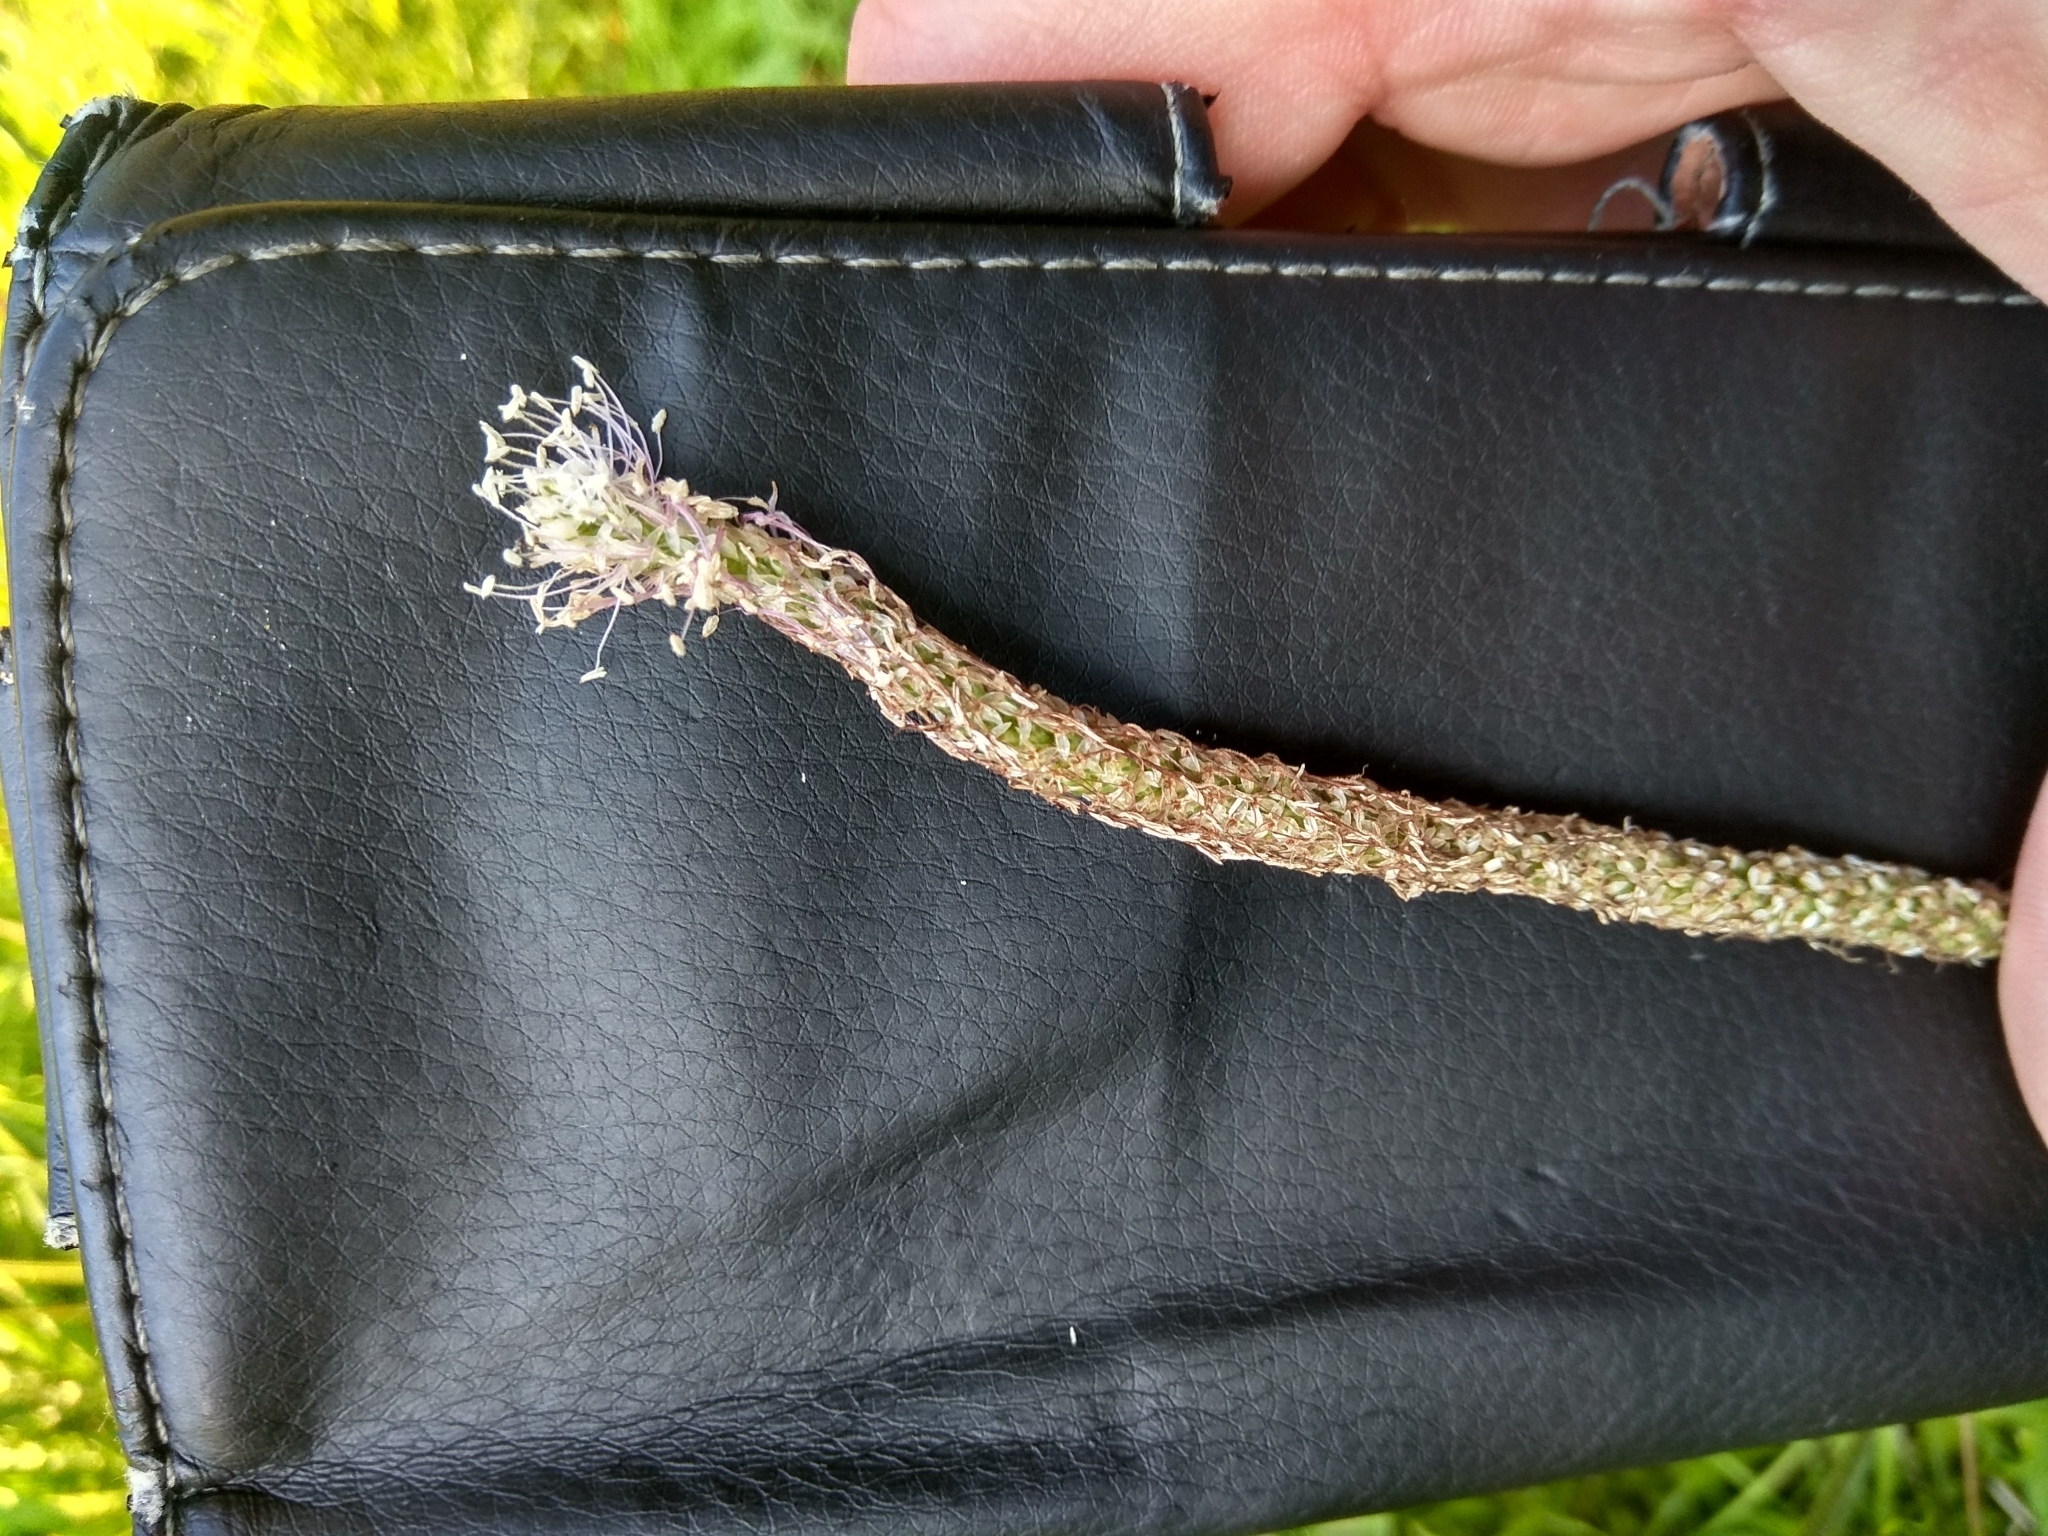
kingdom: Plantae
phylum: Tracheophyta
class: Magnoliopsida
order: Lamiales
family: Plantaginaceae
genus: Plantago
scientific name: Plantago media
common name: Hoary plantain
